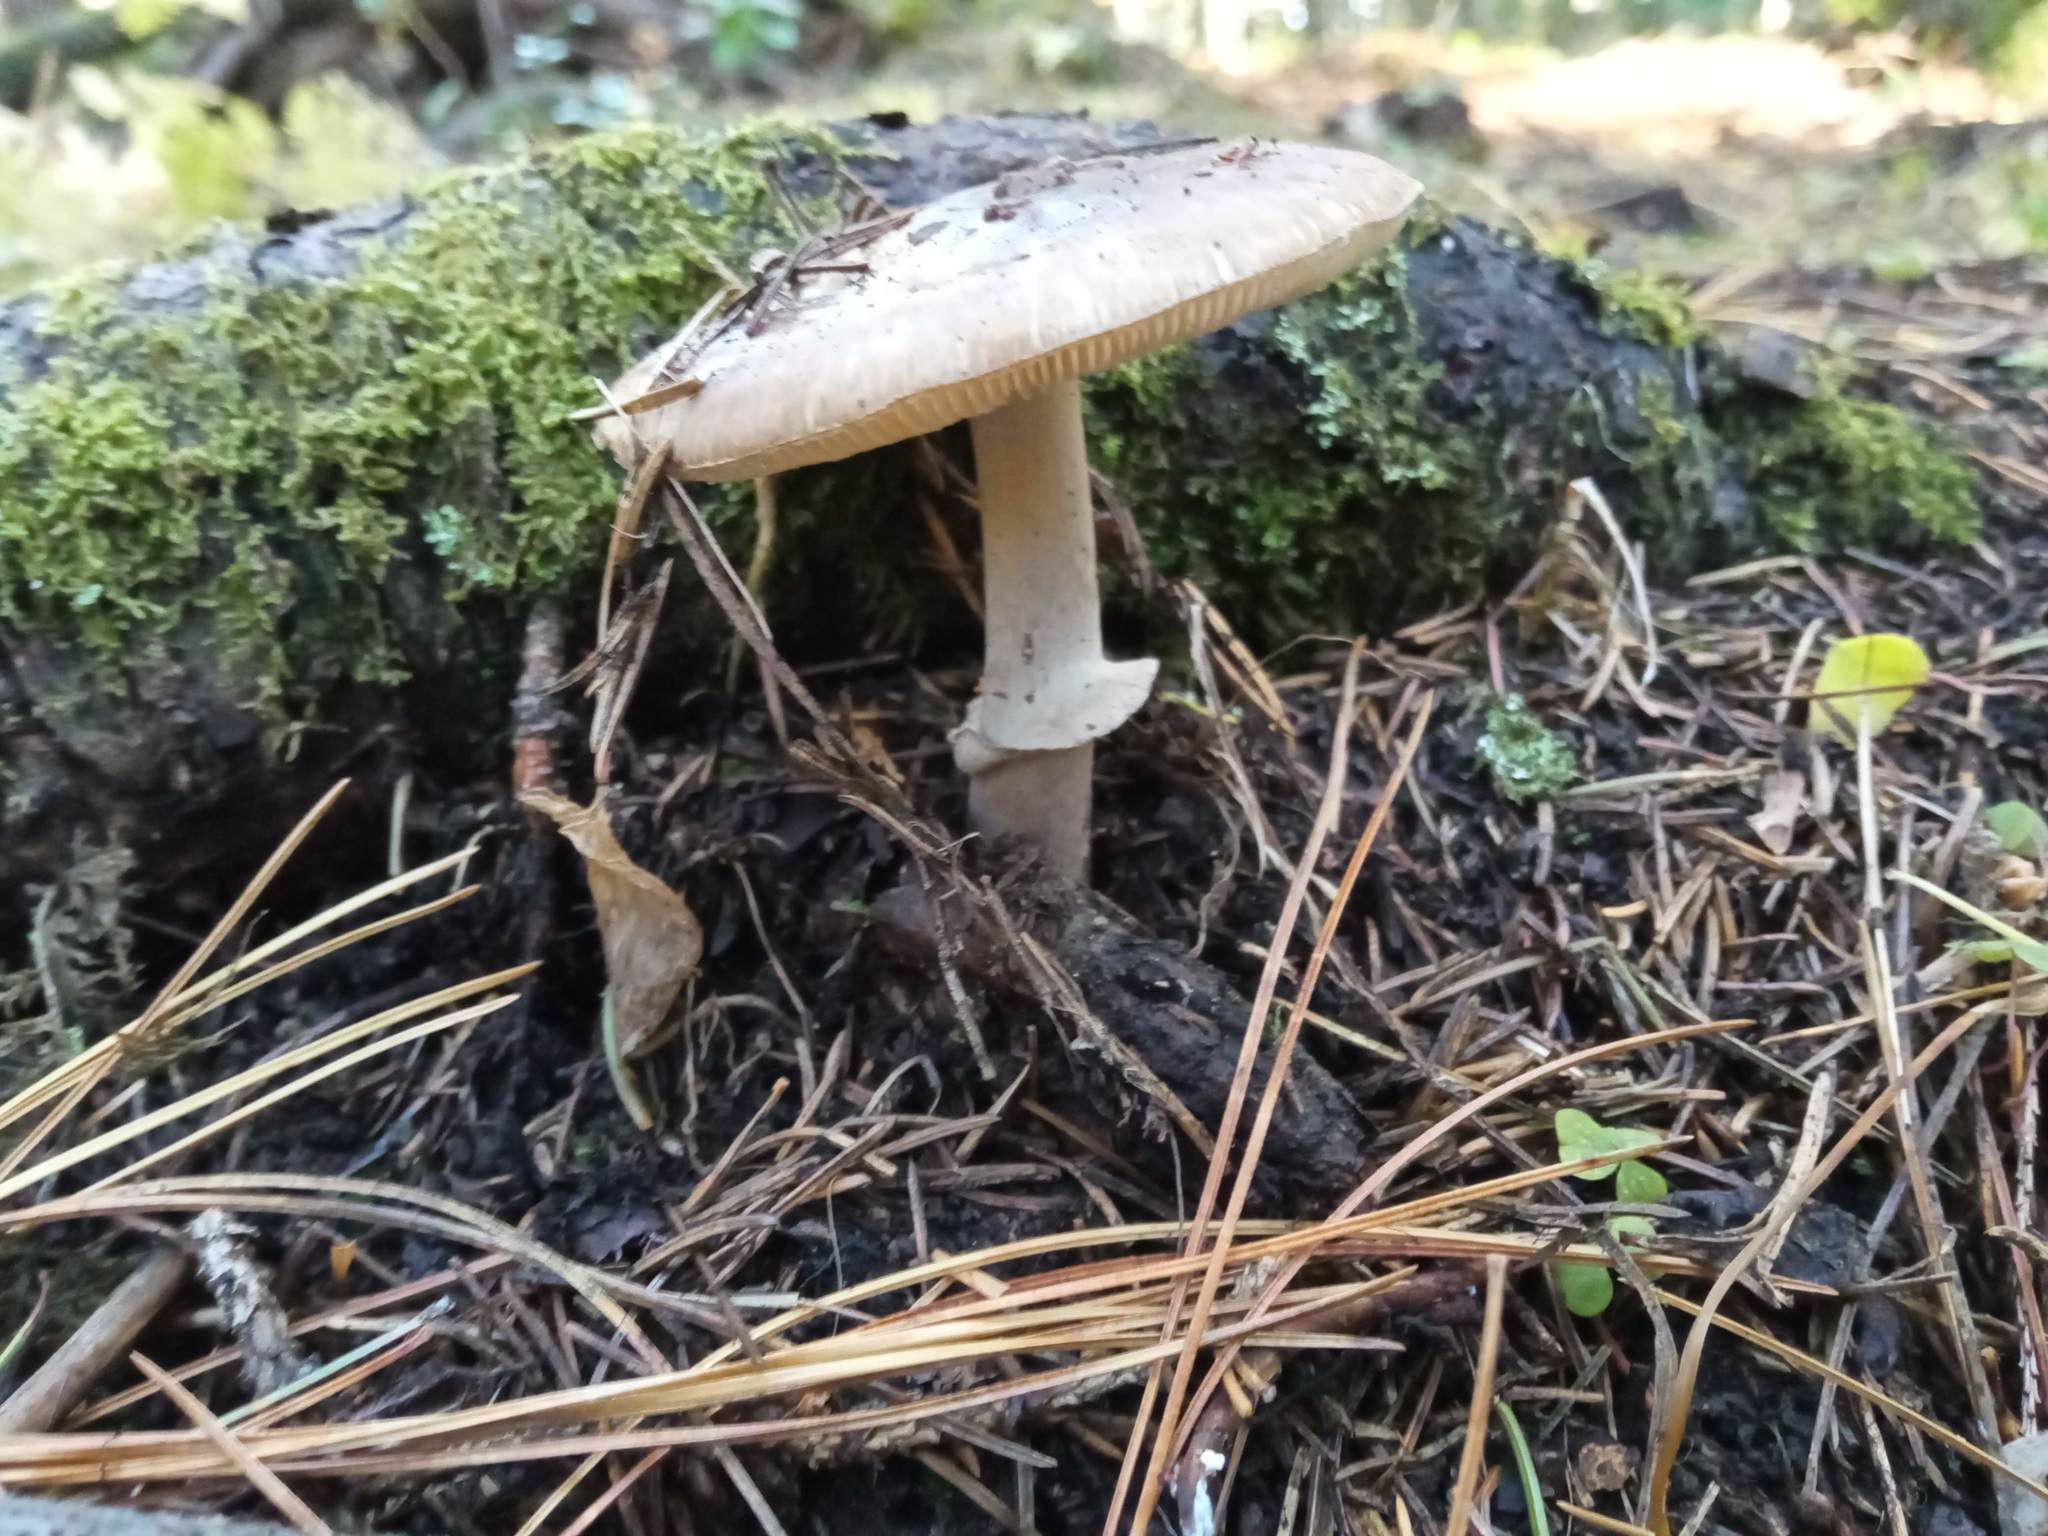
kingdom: Fungi
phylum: Basidiomycota
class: Agaricomycetes
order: Agaricales
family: Amanitaceae
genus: Amanita
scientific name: Amanita porphyria
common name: Grey veiled amanita
